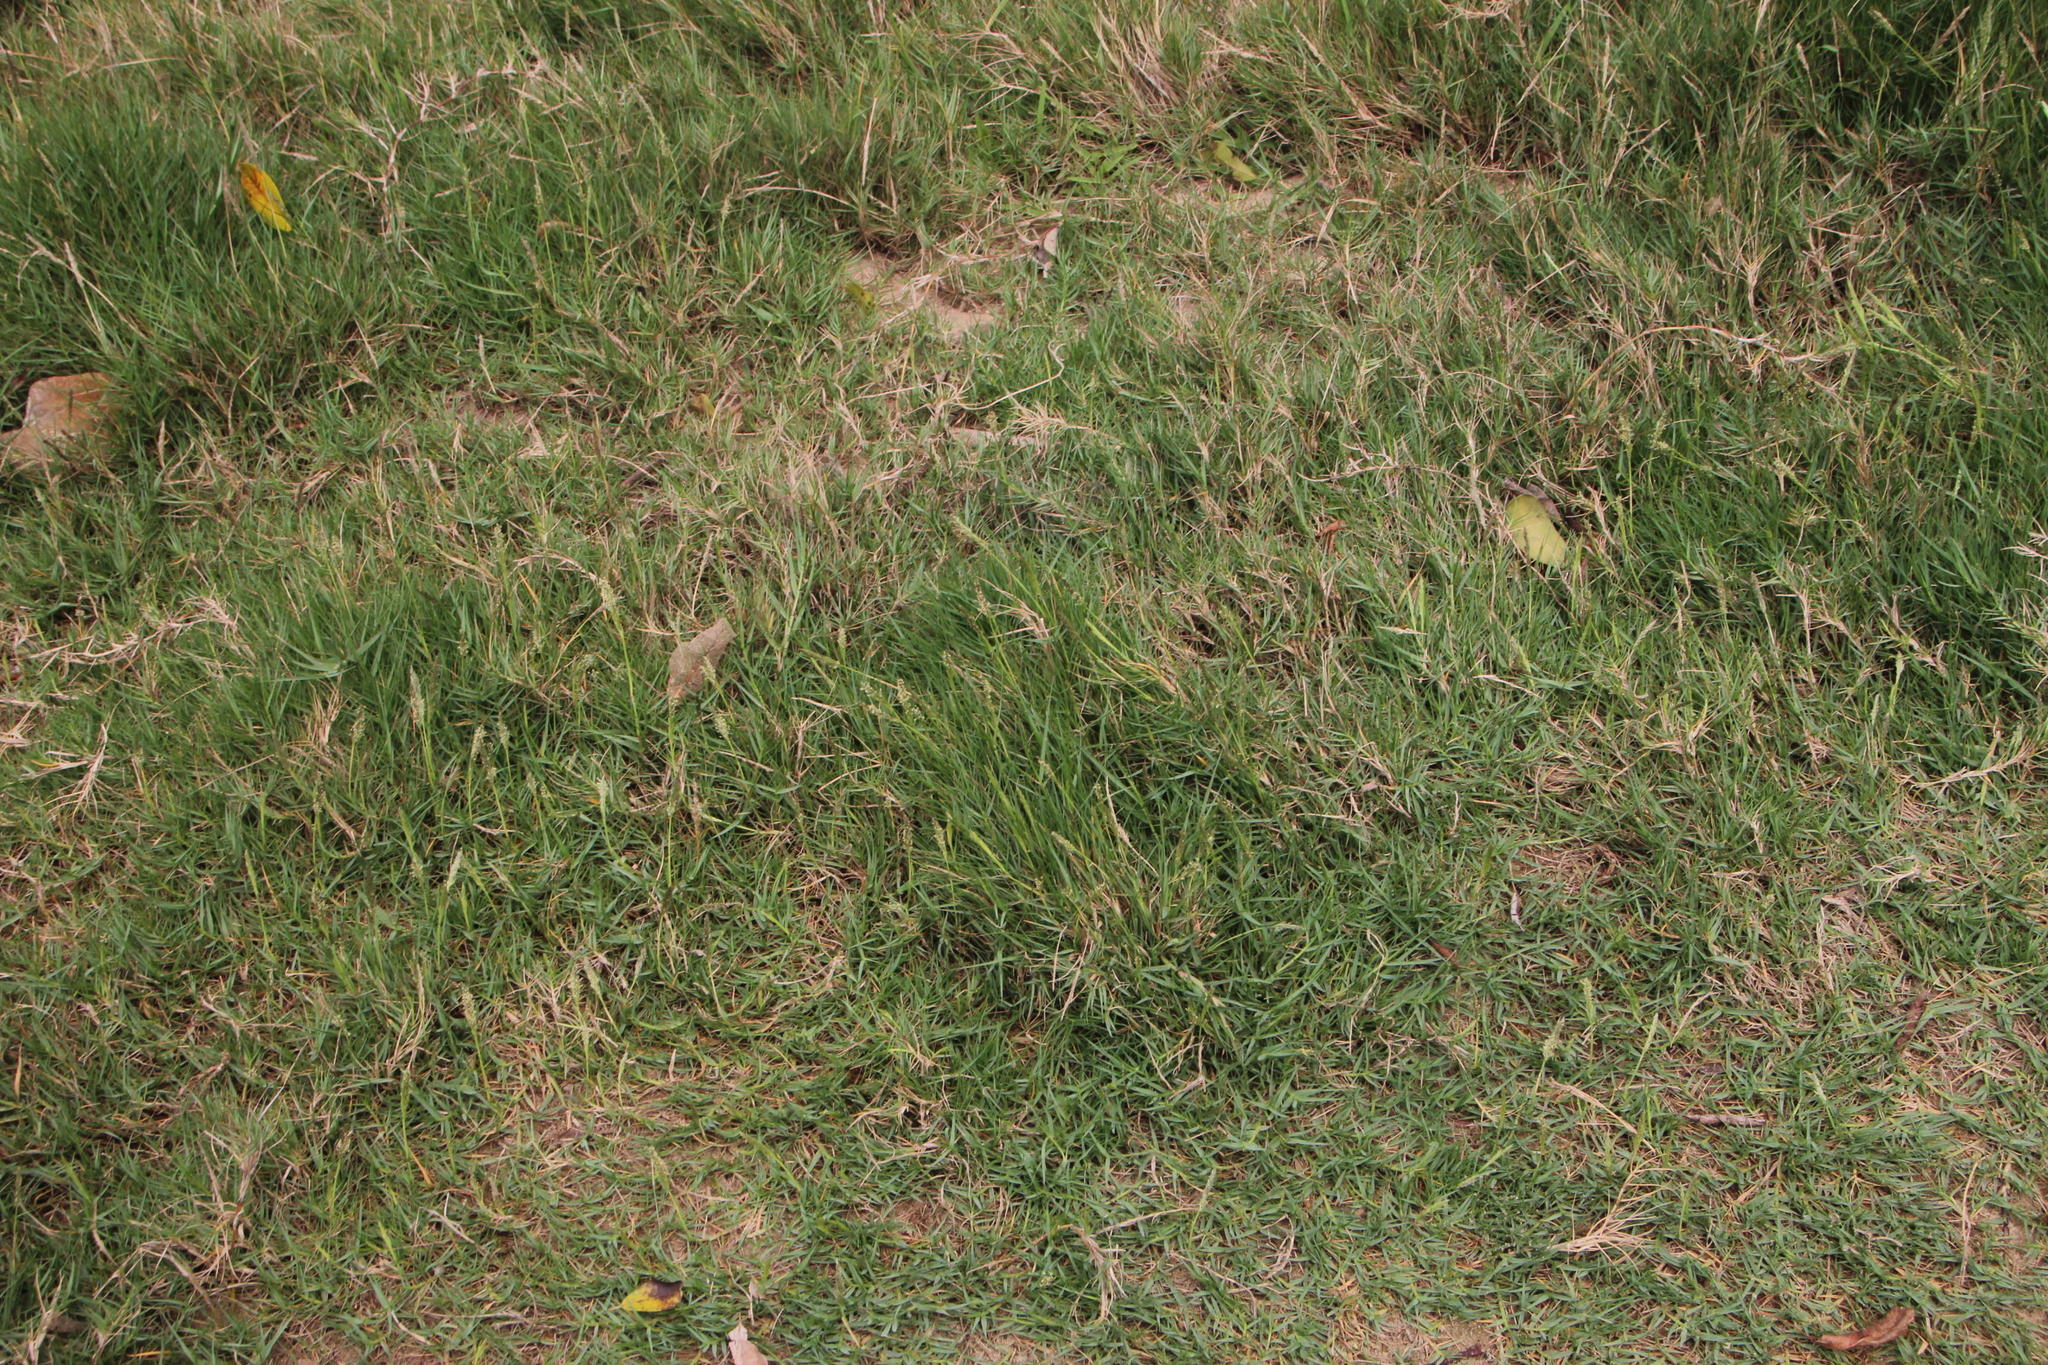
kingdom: Plantae
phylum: Tracheophyta
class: Liliopsida
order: Poales
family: Poaceae
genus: Sporobolus
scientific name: Sporobolus virginicus
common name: Beach dropseed
